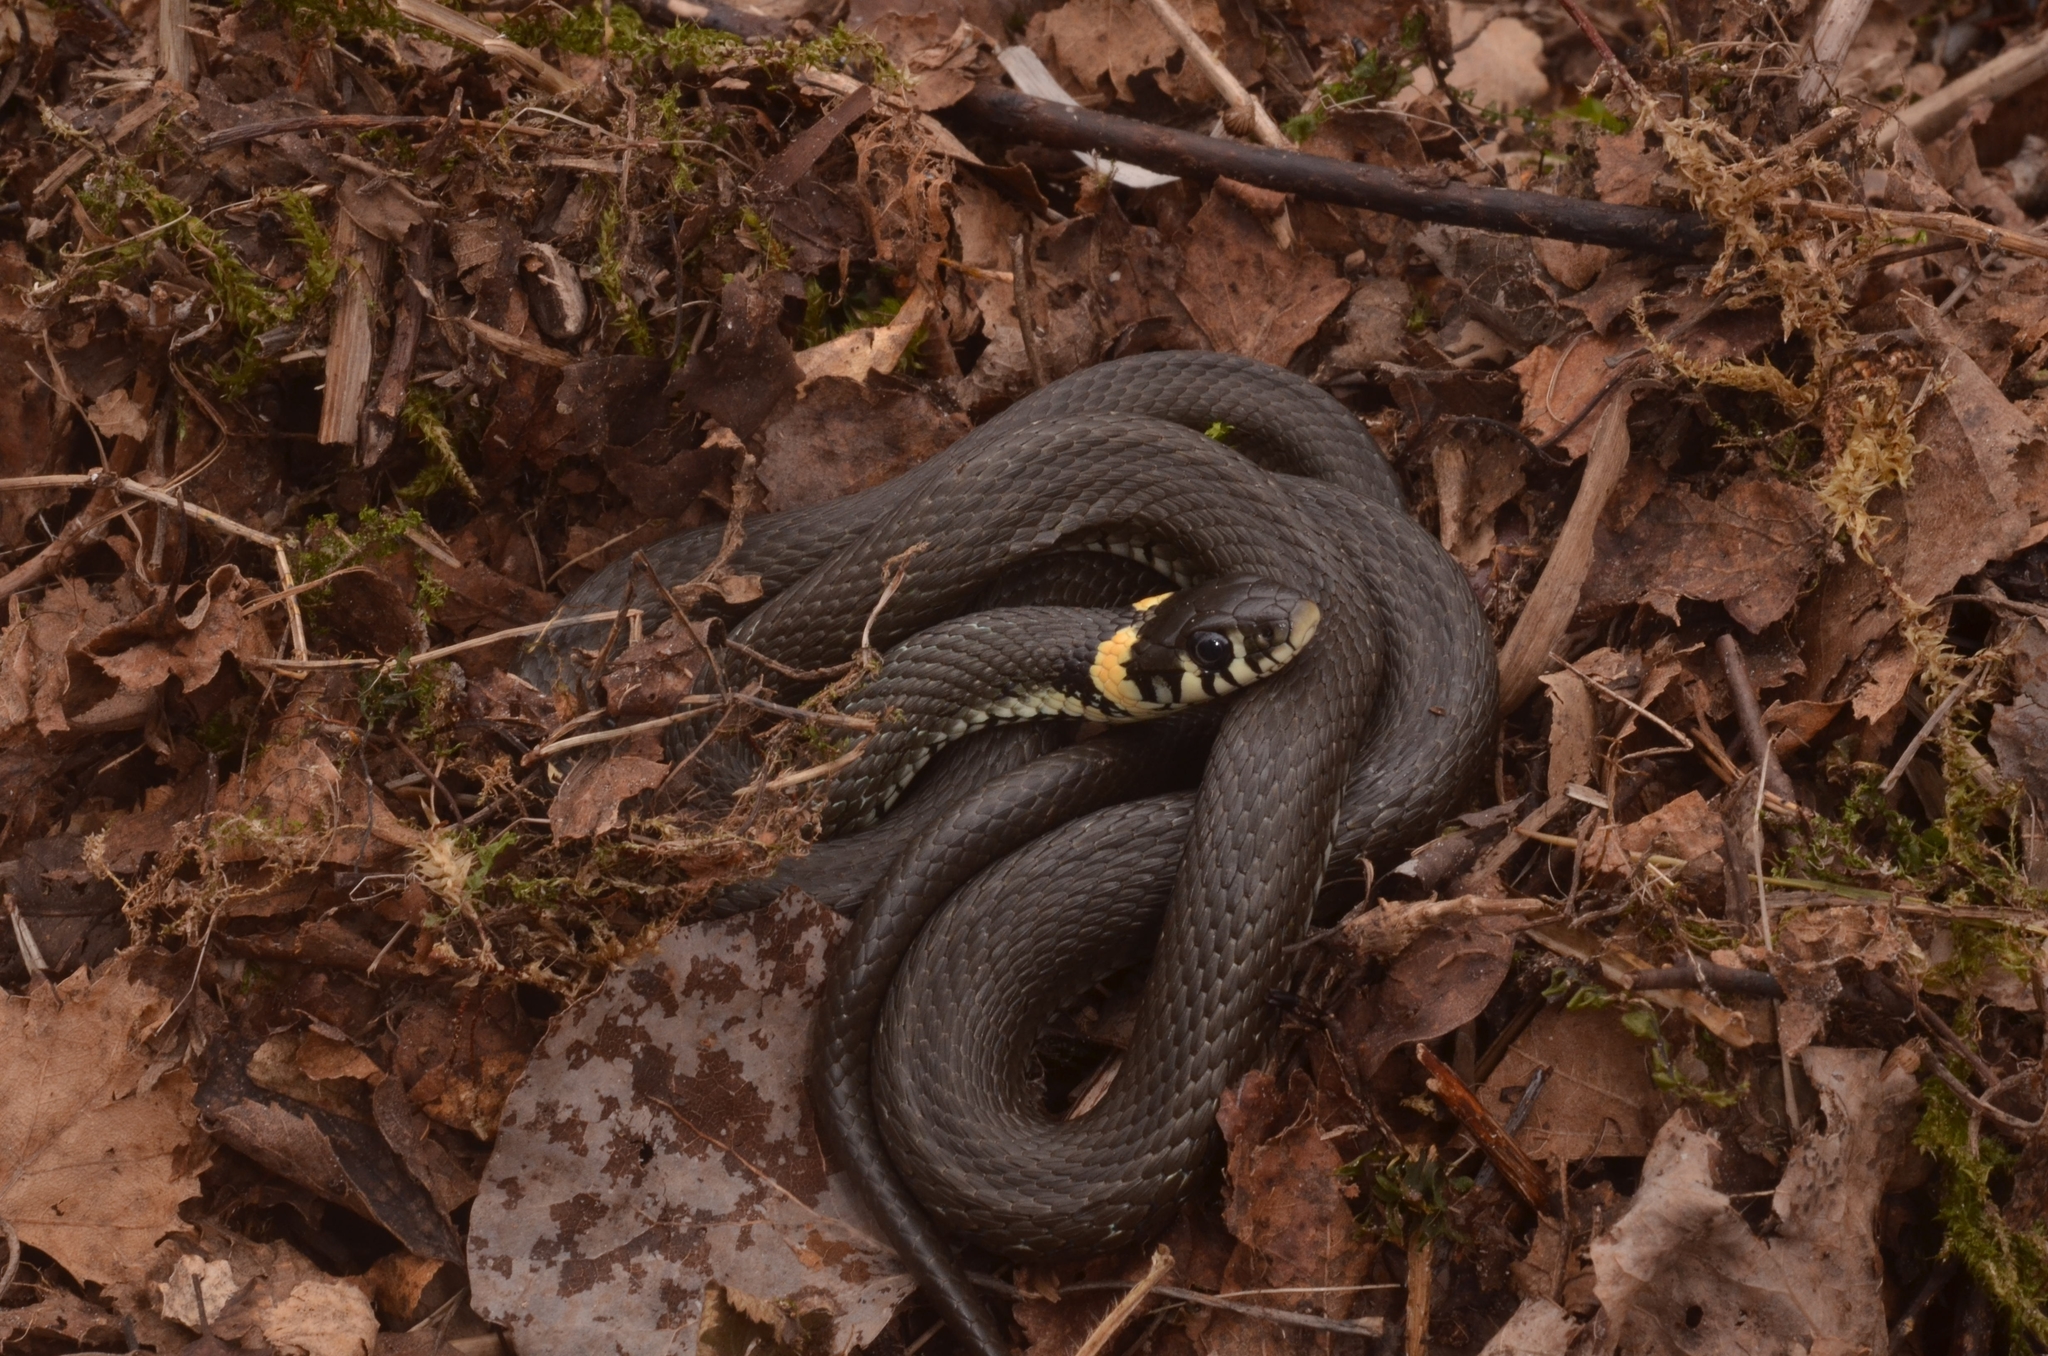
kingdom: Animalia
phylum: Chordata
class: Squamata
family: Colubridae
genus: Natrix
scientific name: Natrix natrix
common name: Grass snake
